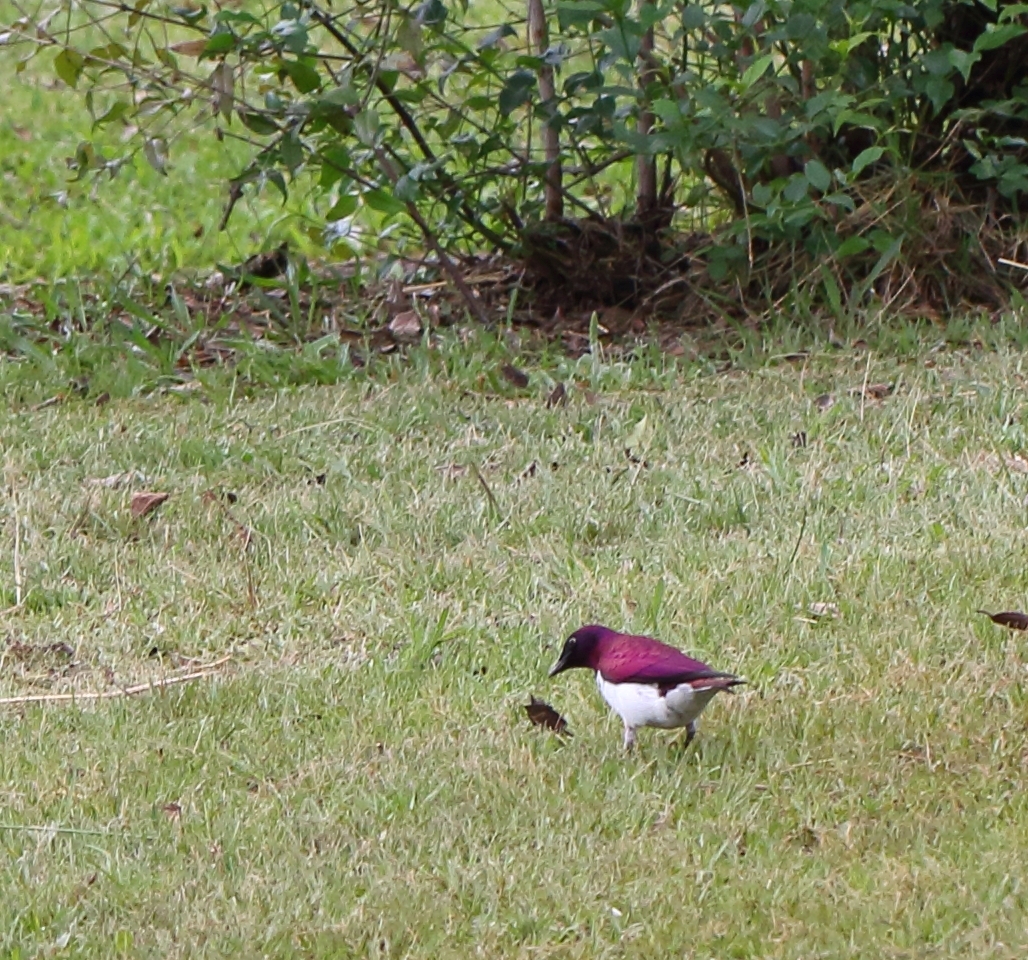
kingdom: Animalia
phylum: Chordata
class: Aves
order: Passeriformes
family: Sturnidae
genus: Cinnyricinclus
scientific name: Cinnyricinclus leucogaster
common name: Violet-backed starling
